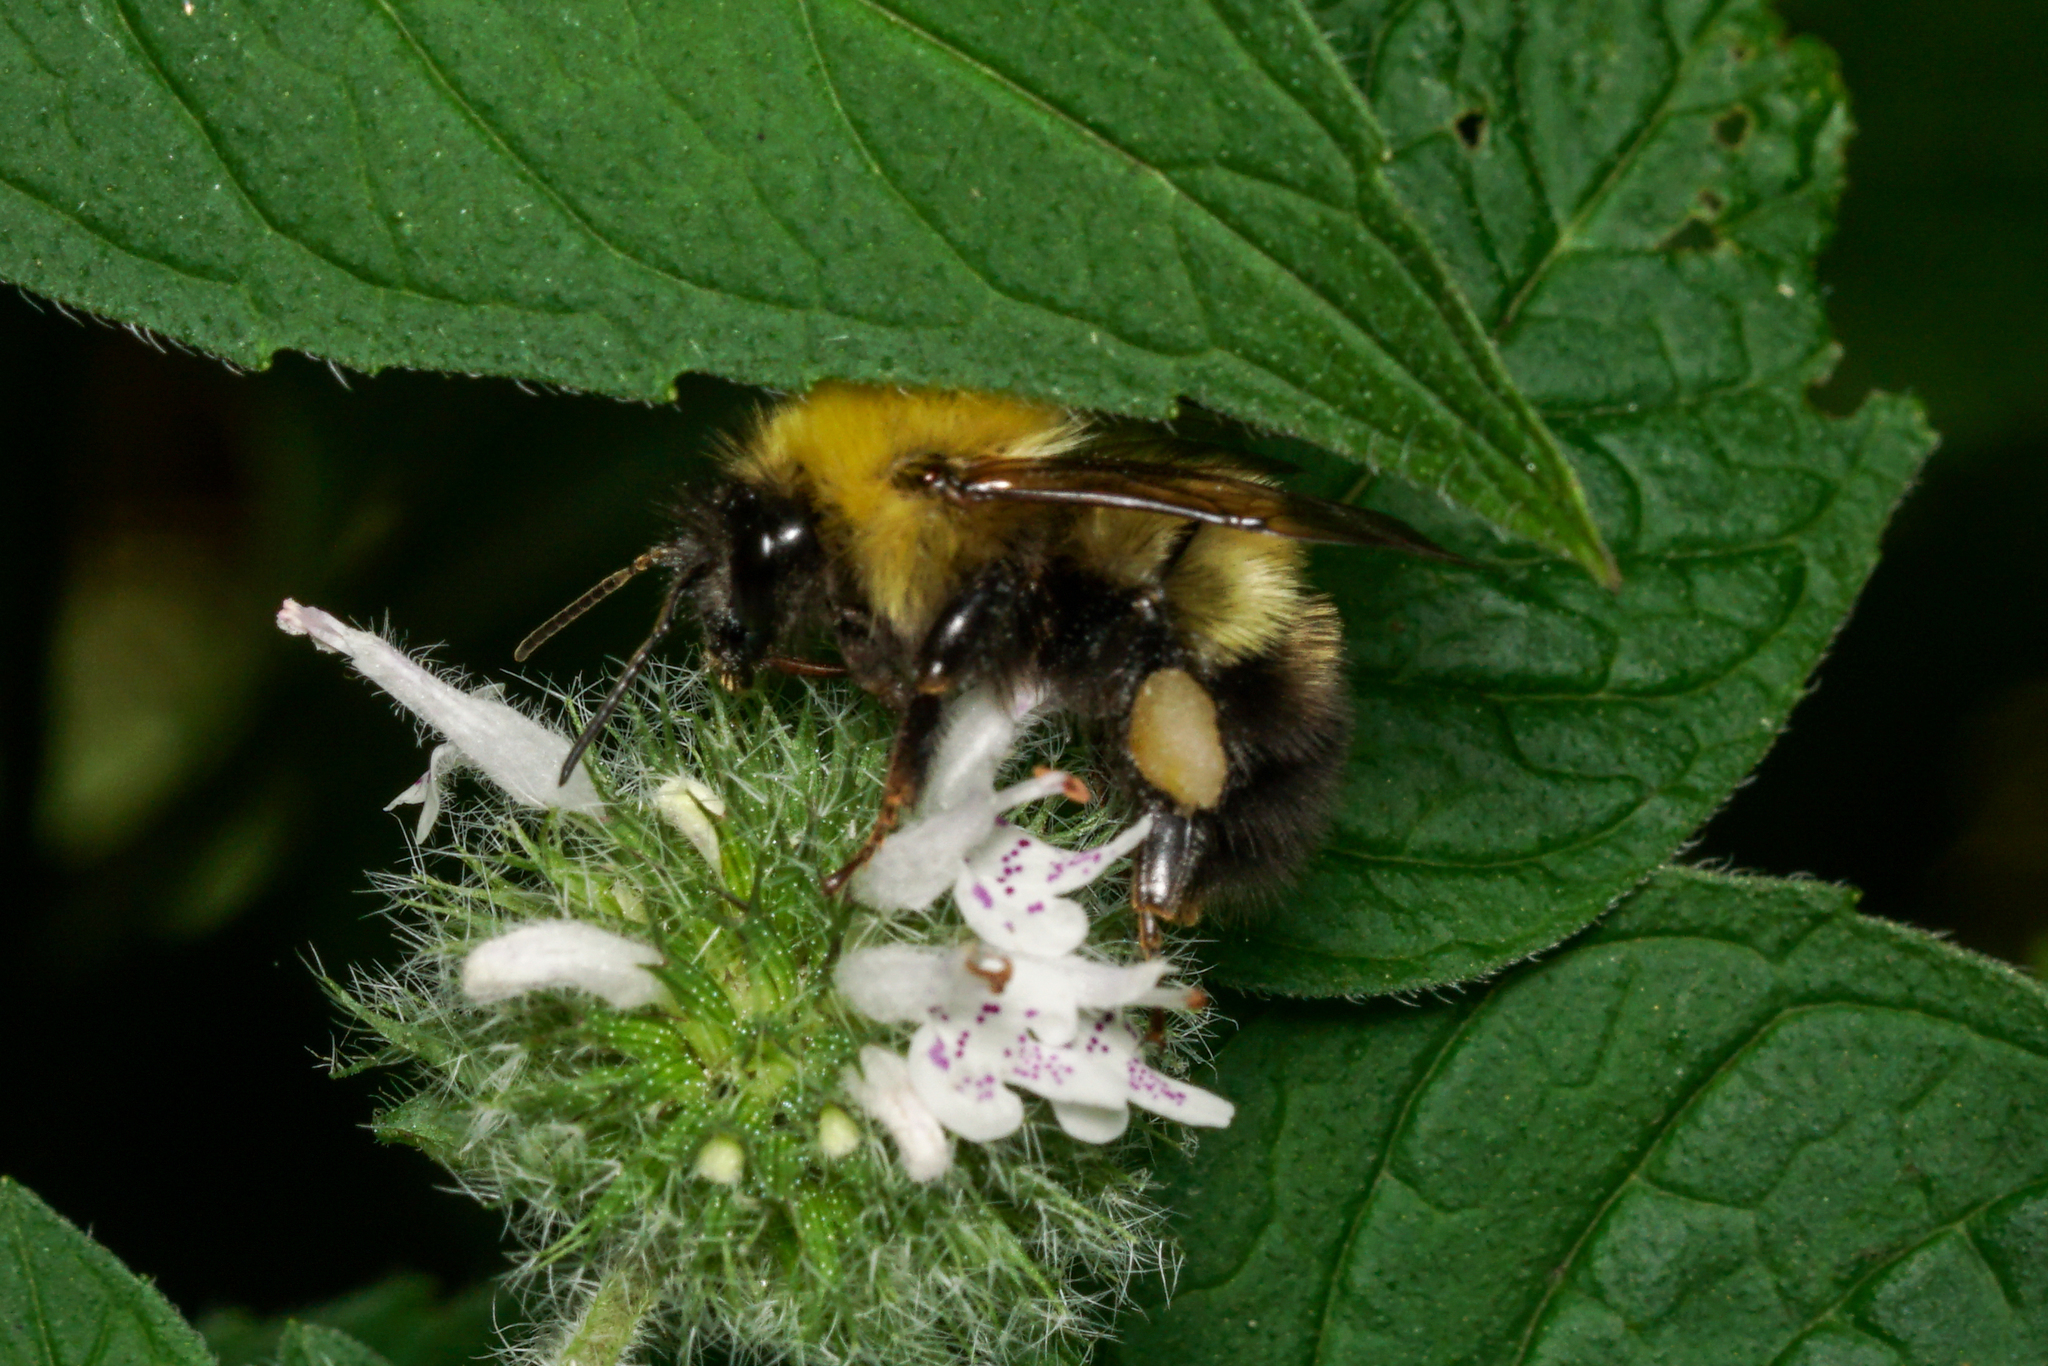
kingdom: Animalia
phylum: Arthropoda
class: Insecta
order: Hymenoptera
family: Apidae
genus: Bombus
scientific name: Bombus perplexus
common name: Confusing bumble bee
